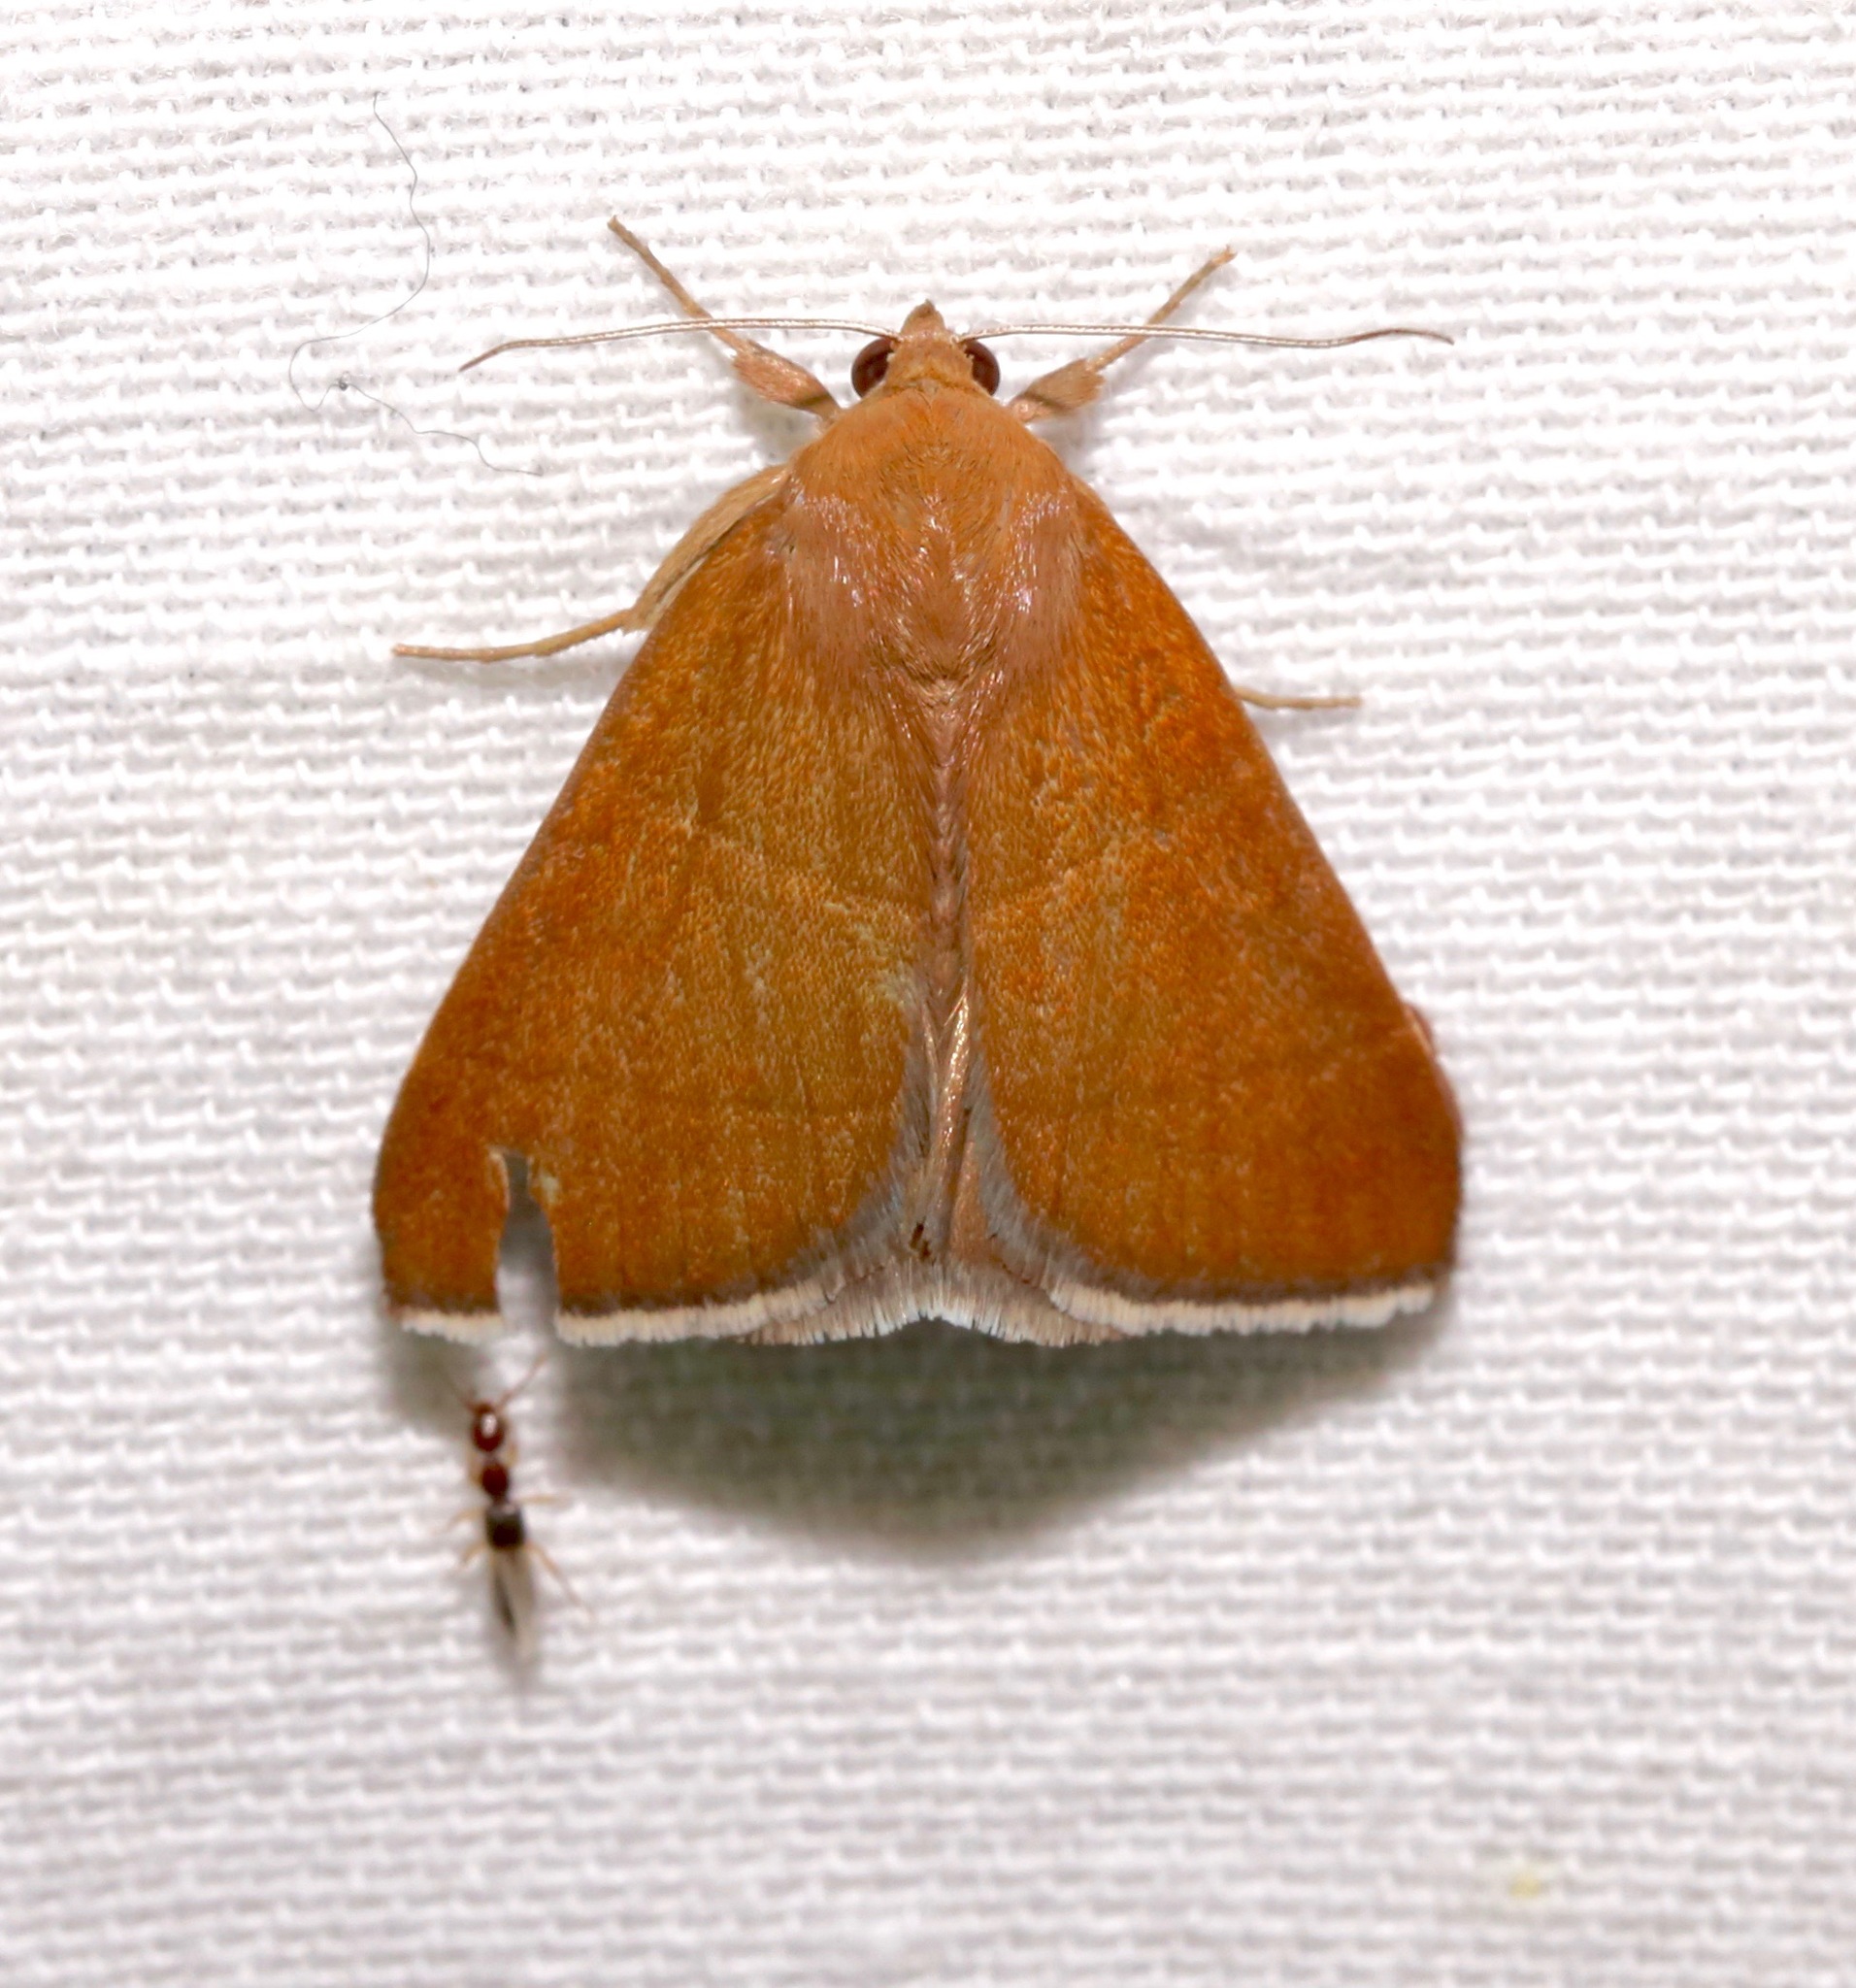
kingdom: Animalia
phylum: Arthropoda
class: Insecta
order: Lepidoptera
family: Erebidae
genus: Argyrostrotis
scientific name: Argyrostrotis quadrifilaris
